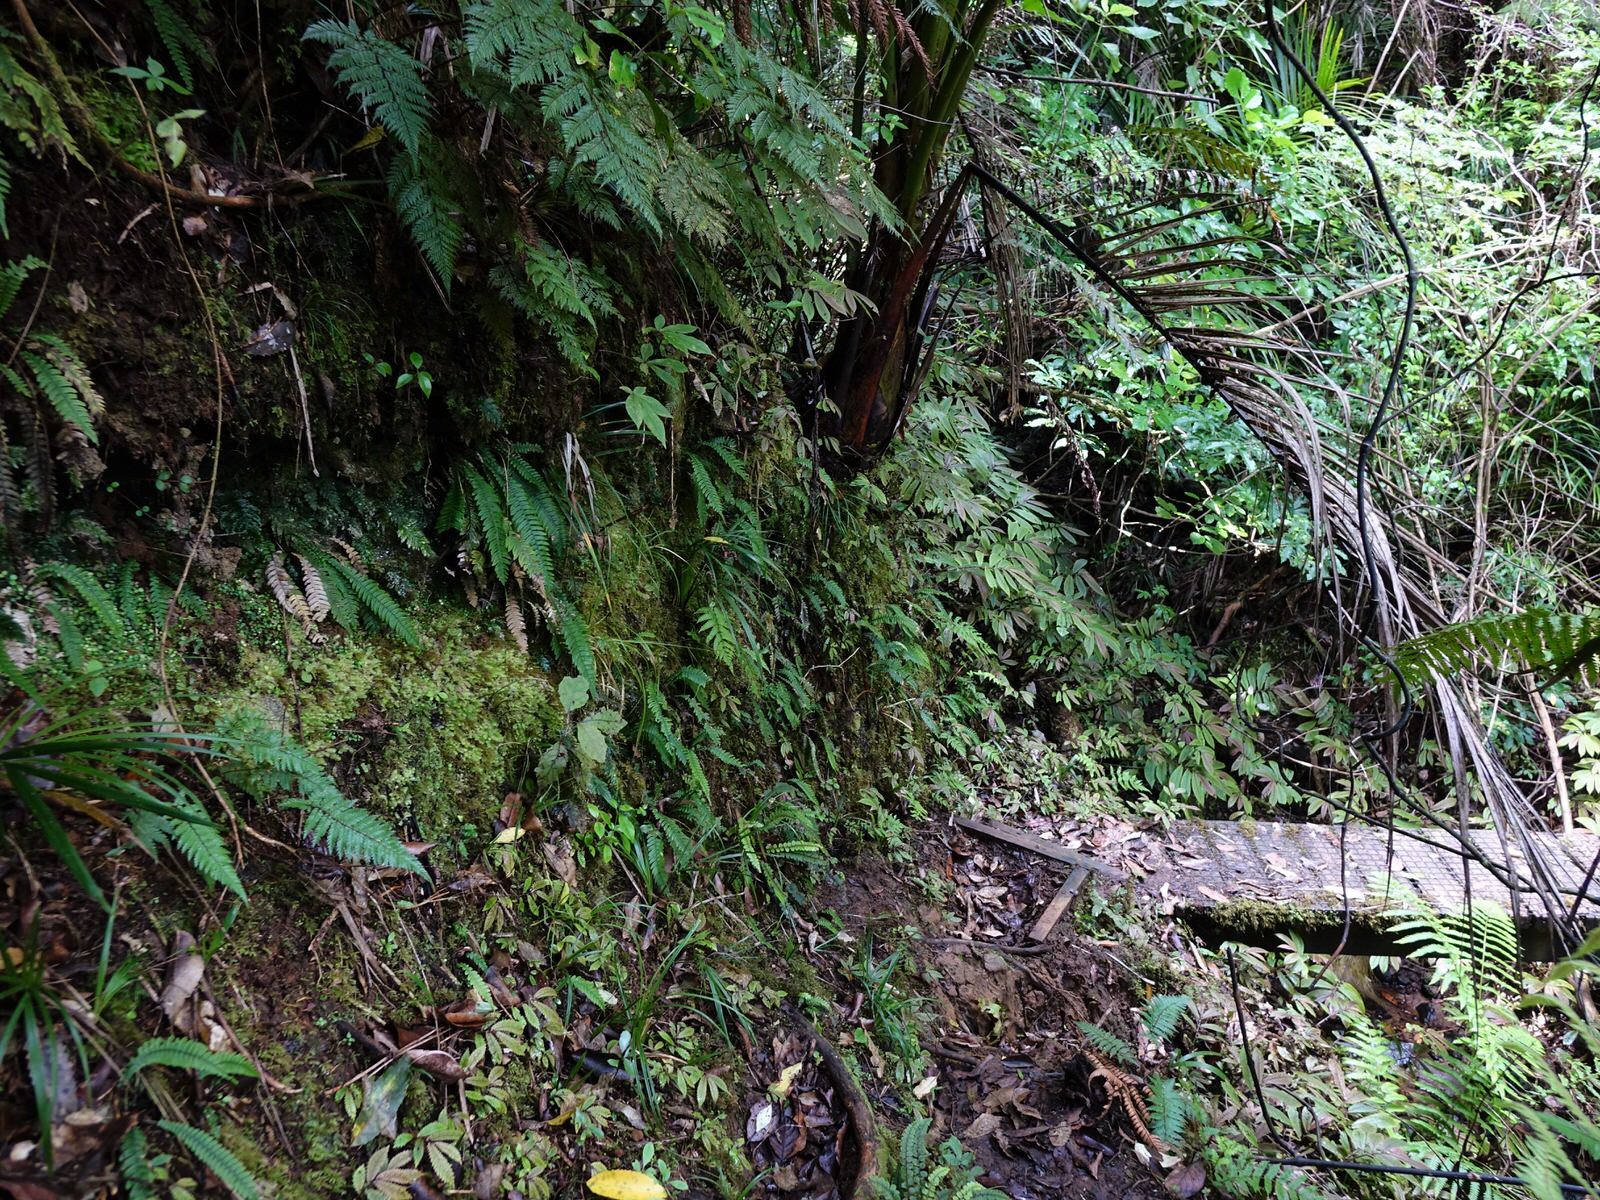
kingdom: Animalia
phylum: Arthropoda
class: Insecta
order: Diptera
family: Keroplatidae
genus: Arachnocampa
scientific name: Arachnocampa luminosa
